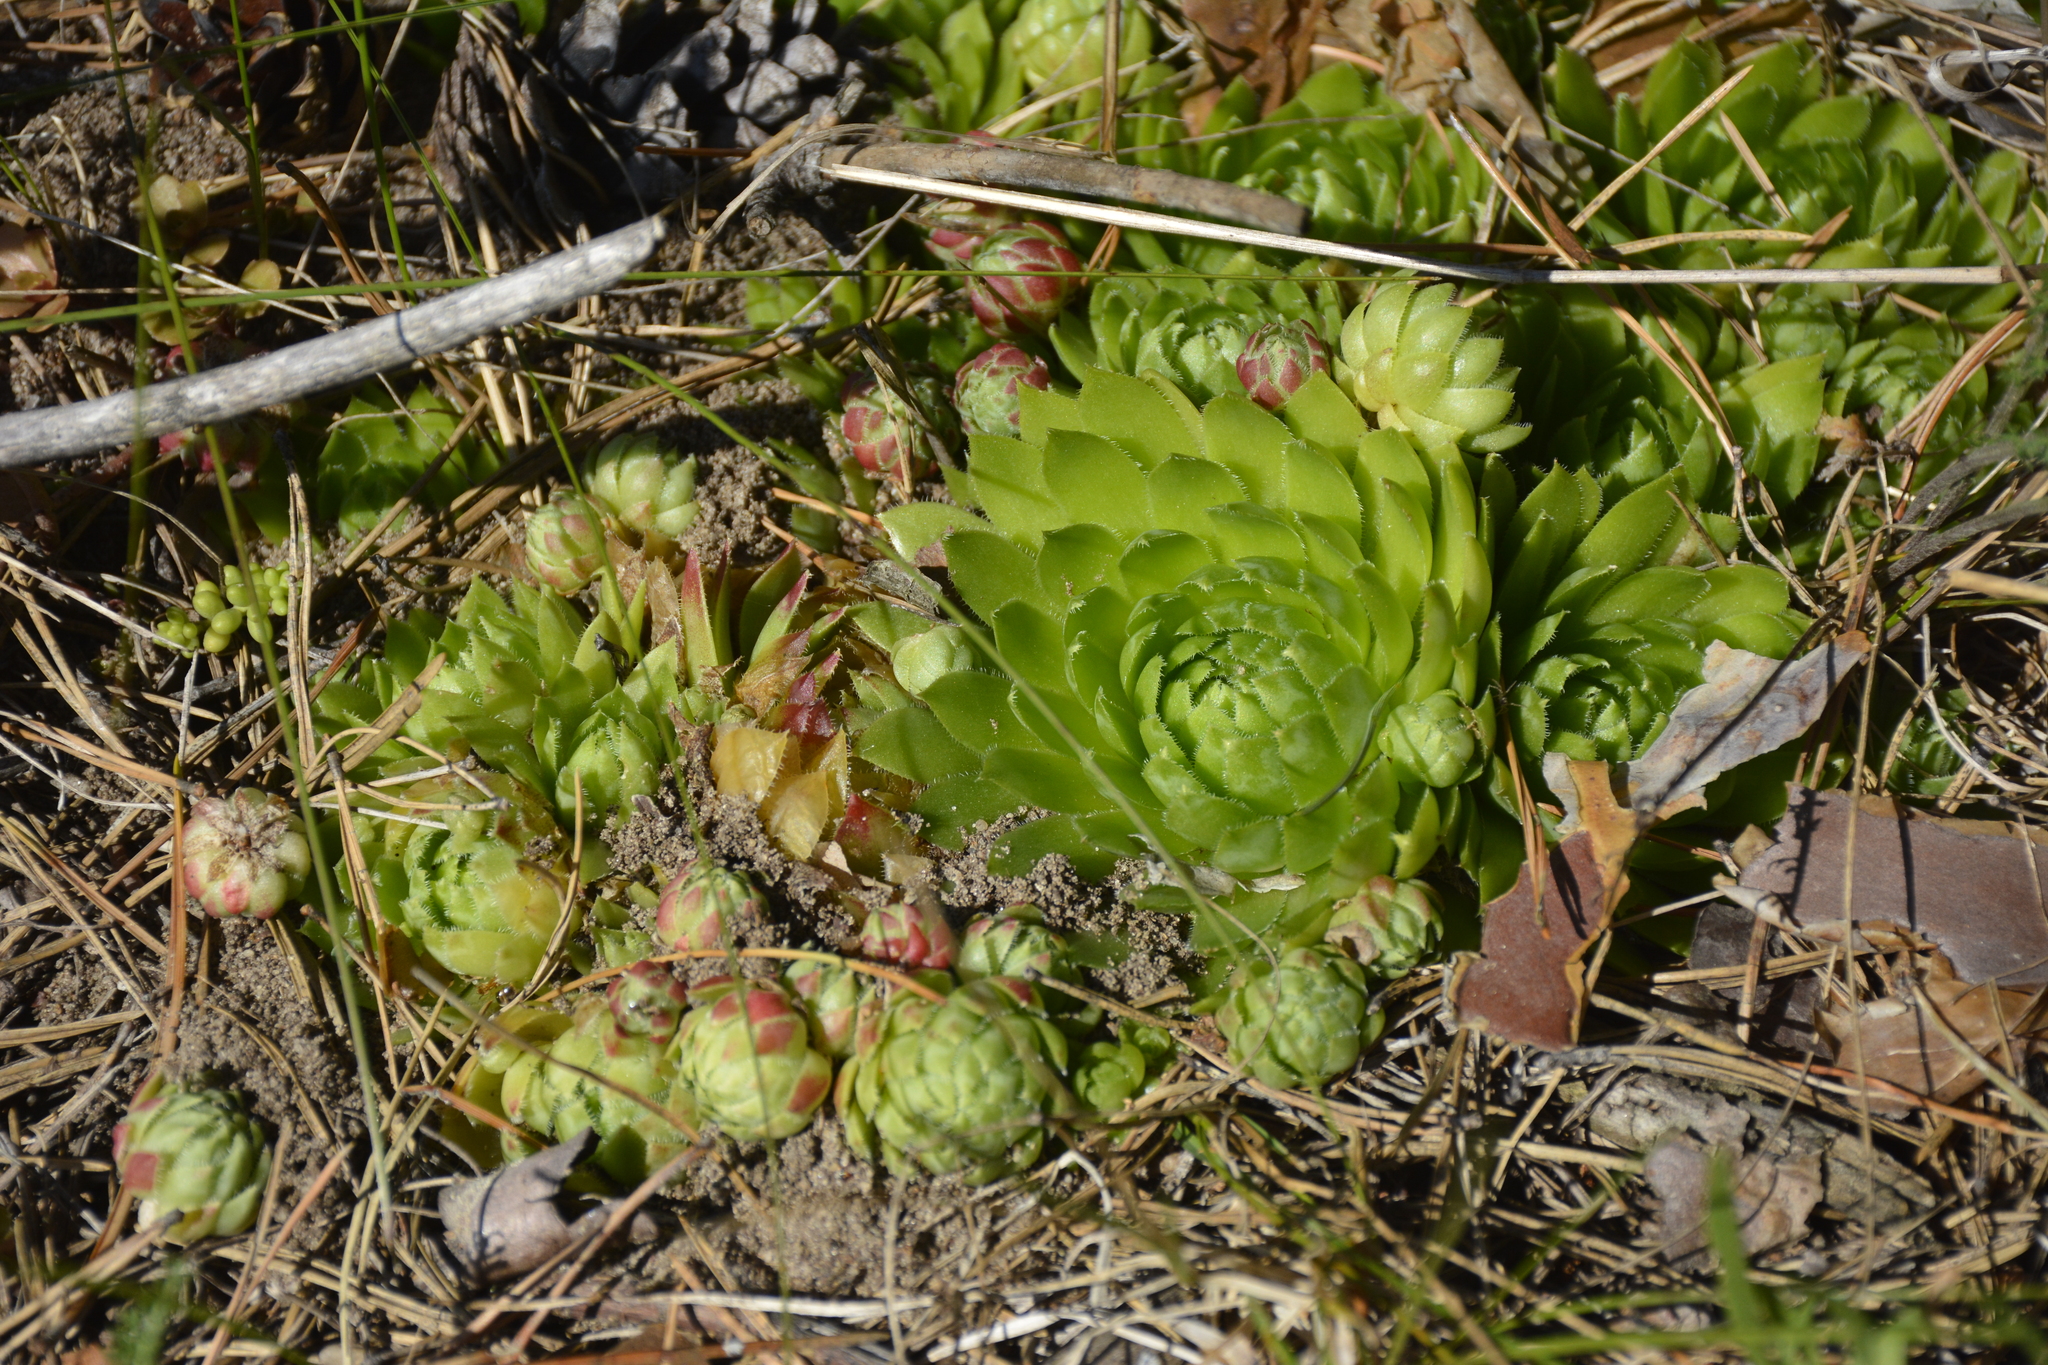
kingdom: Plantae
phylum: Tracheophyta
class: Magnoliopsida
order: Saxifragales
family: Crassulaceae
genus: Sempervivum
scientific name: Sempervivum globiferum
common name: Rolling hen-and-chicks
